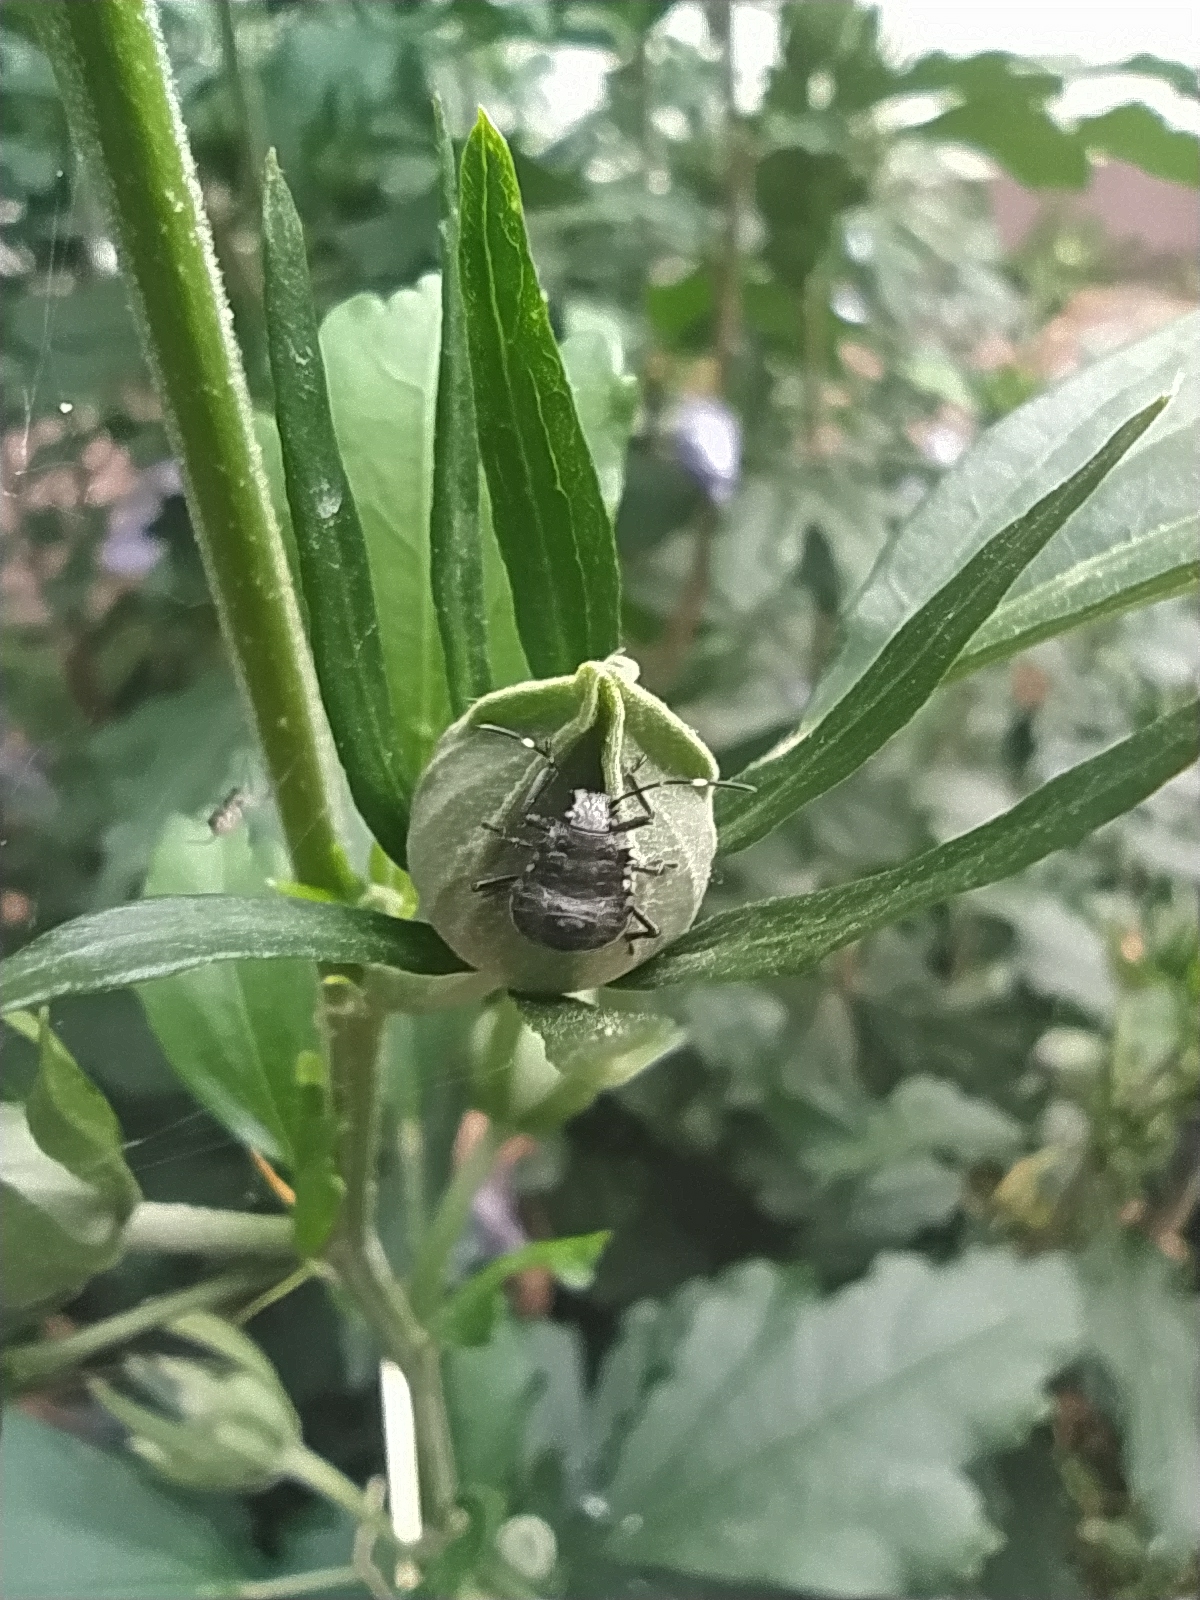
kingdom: Animalia
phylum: Arthropoda
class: Insecta
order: Hemiptera
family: Pentatomidae
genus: Halyomorpha
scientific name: Halyomorpha halys
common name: Brown marmorated stink bug
